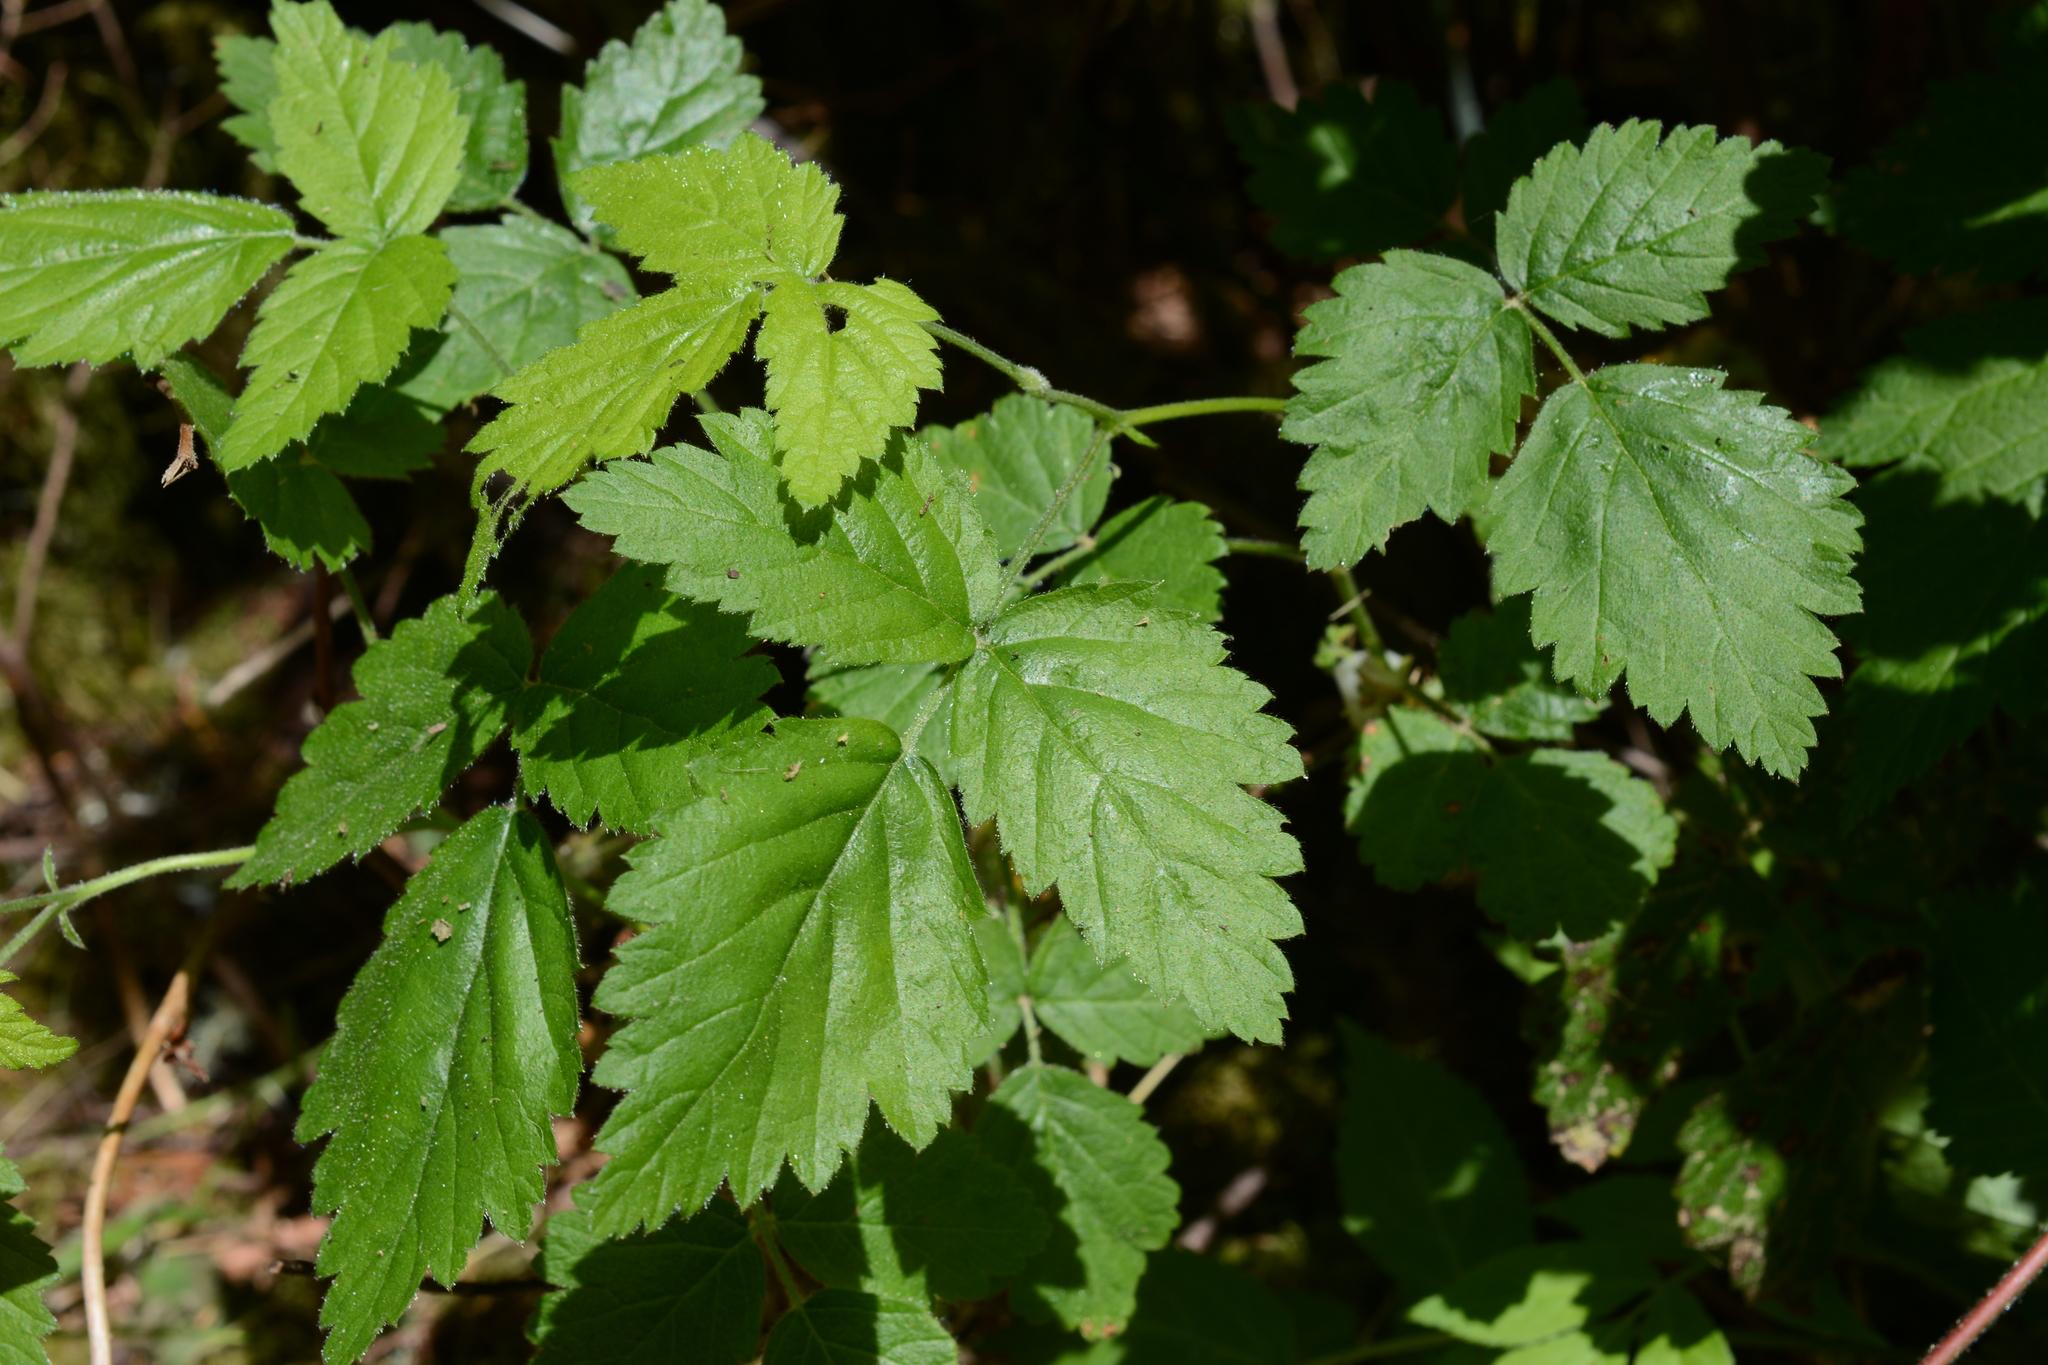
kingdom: Plantae
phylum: Tracheophyta
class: Magnoliopsida
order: Rosales
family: Rosaceae
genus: Rubus
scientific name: Rubus ursinus
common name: Pacific blackberry
